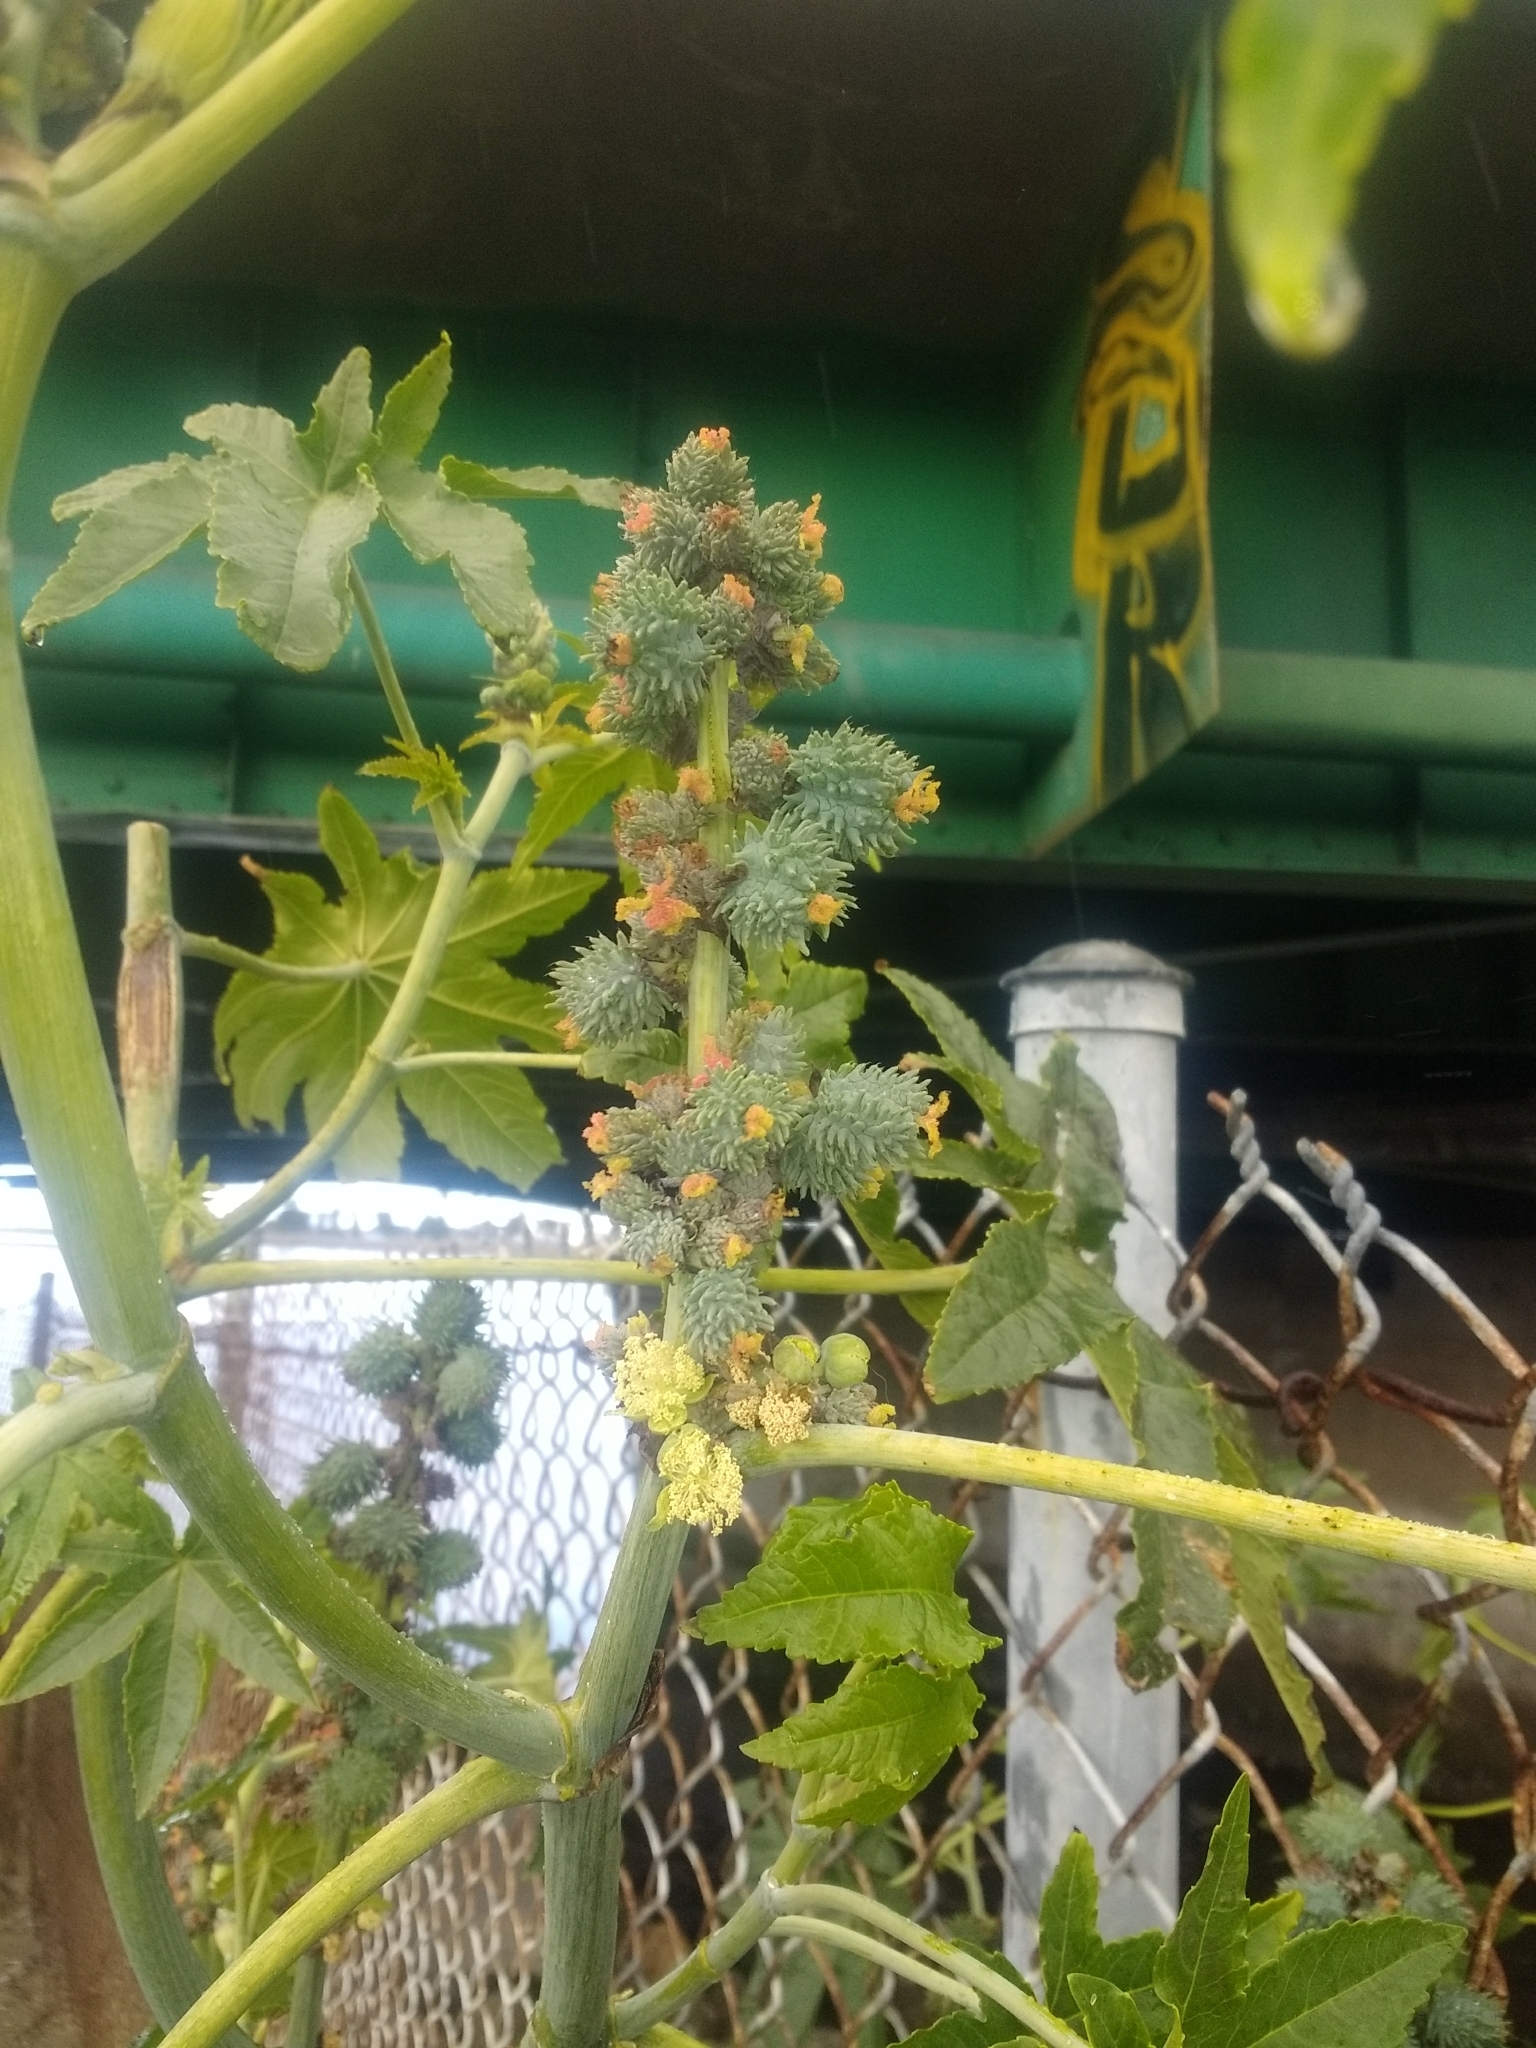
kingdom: Plantae
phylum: Tracheophyta
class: Magnoliopsida
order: Malpighiales
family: Euphorbiaceae
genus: Ricinus
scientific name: Ricinus communis
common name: Castor-oil-plant
